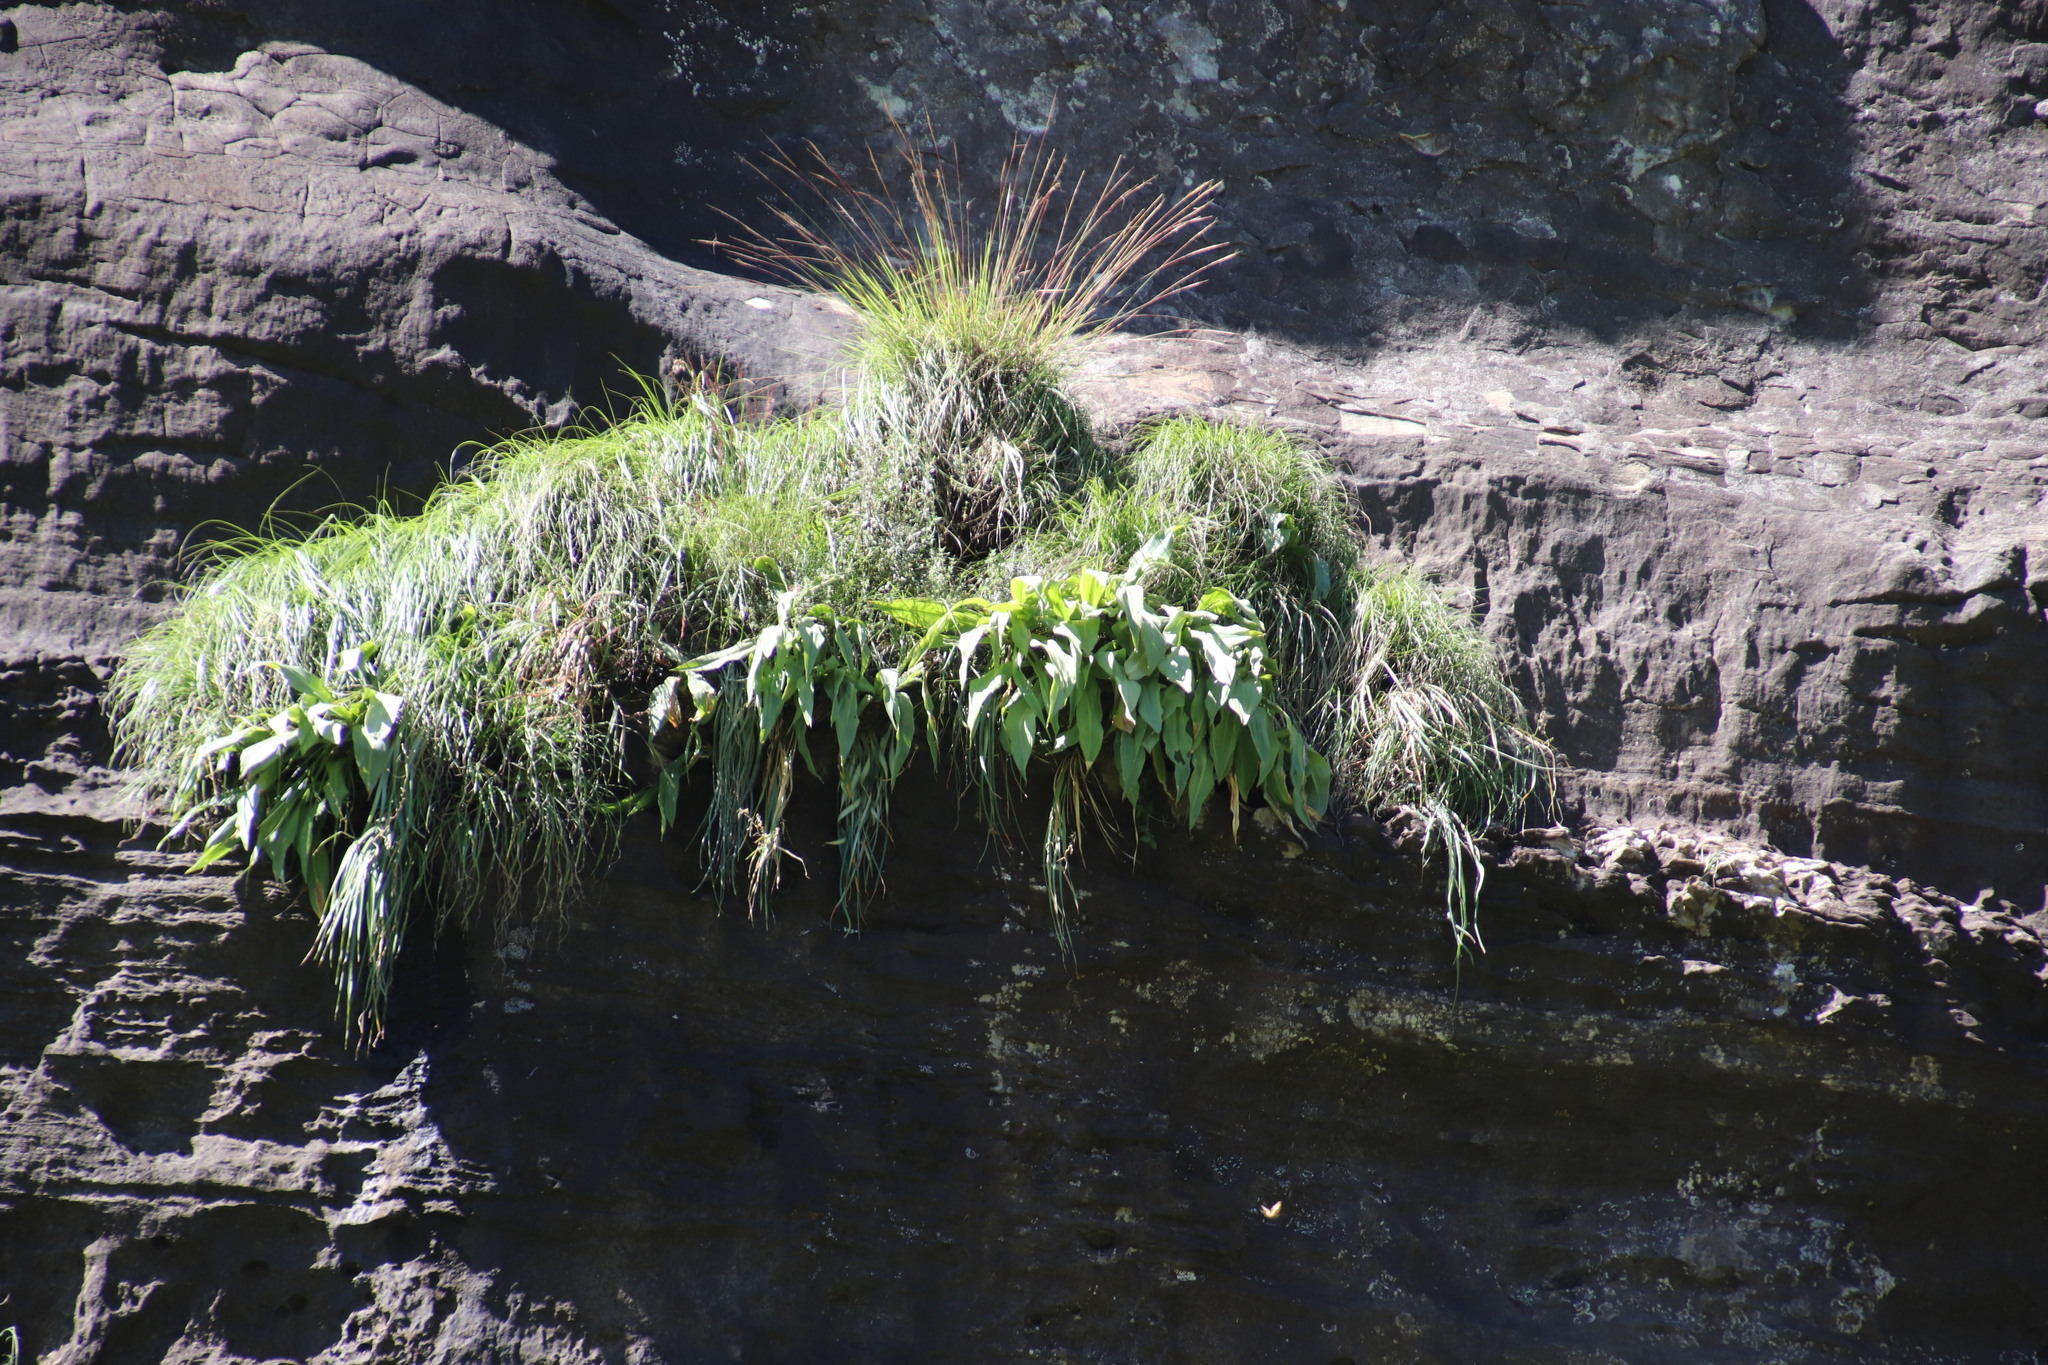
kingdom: Plantae
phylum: Tracheophyta
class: Liliopsida
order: Asparagales
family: Asparagaceae
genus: Merwilla
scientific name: Merwilla plumbea
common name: Blue-squill
